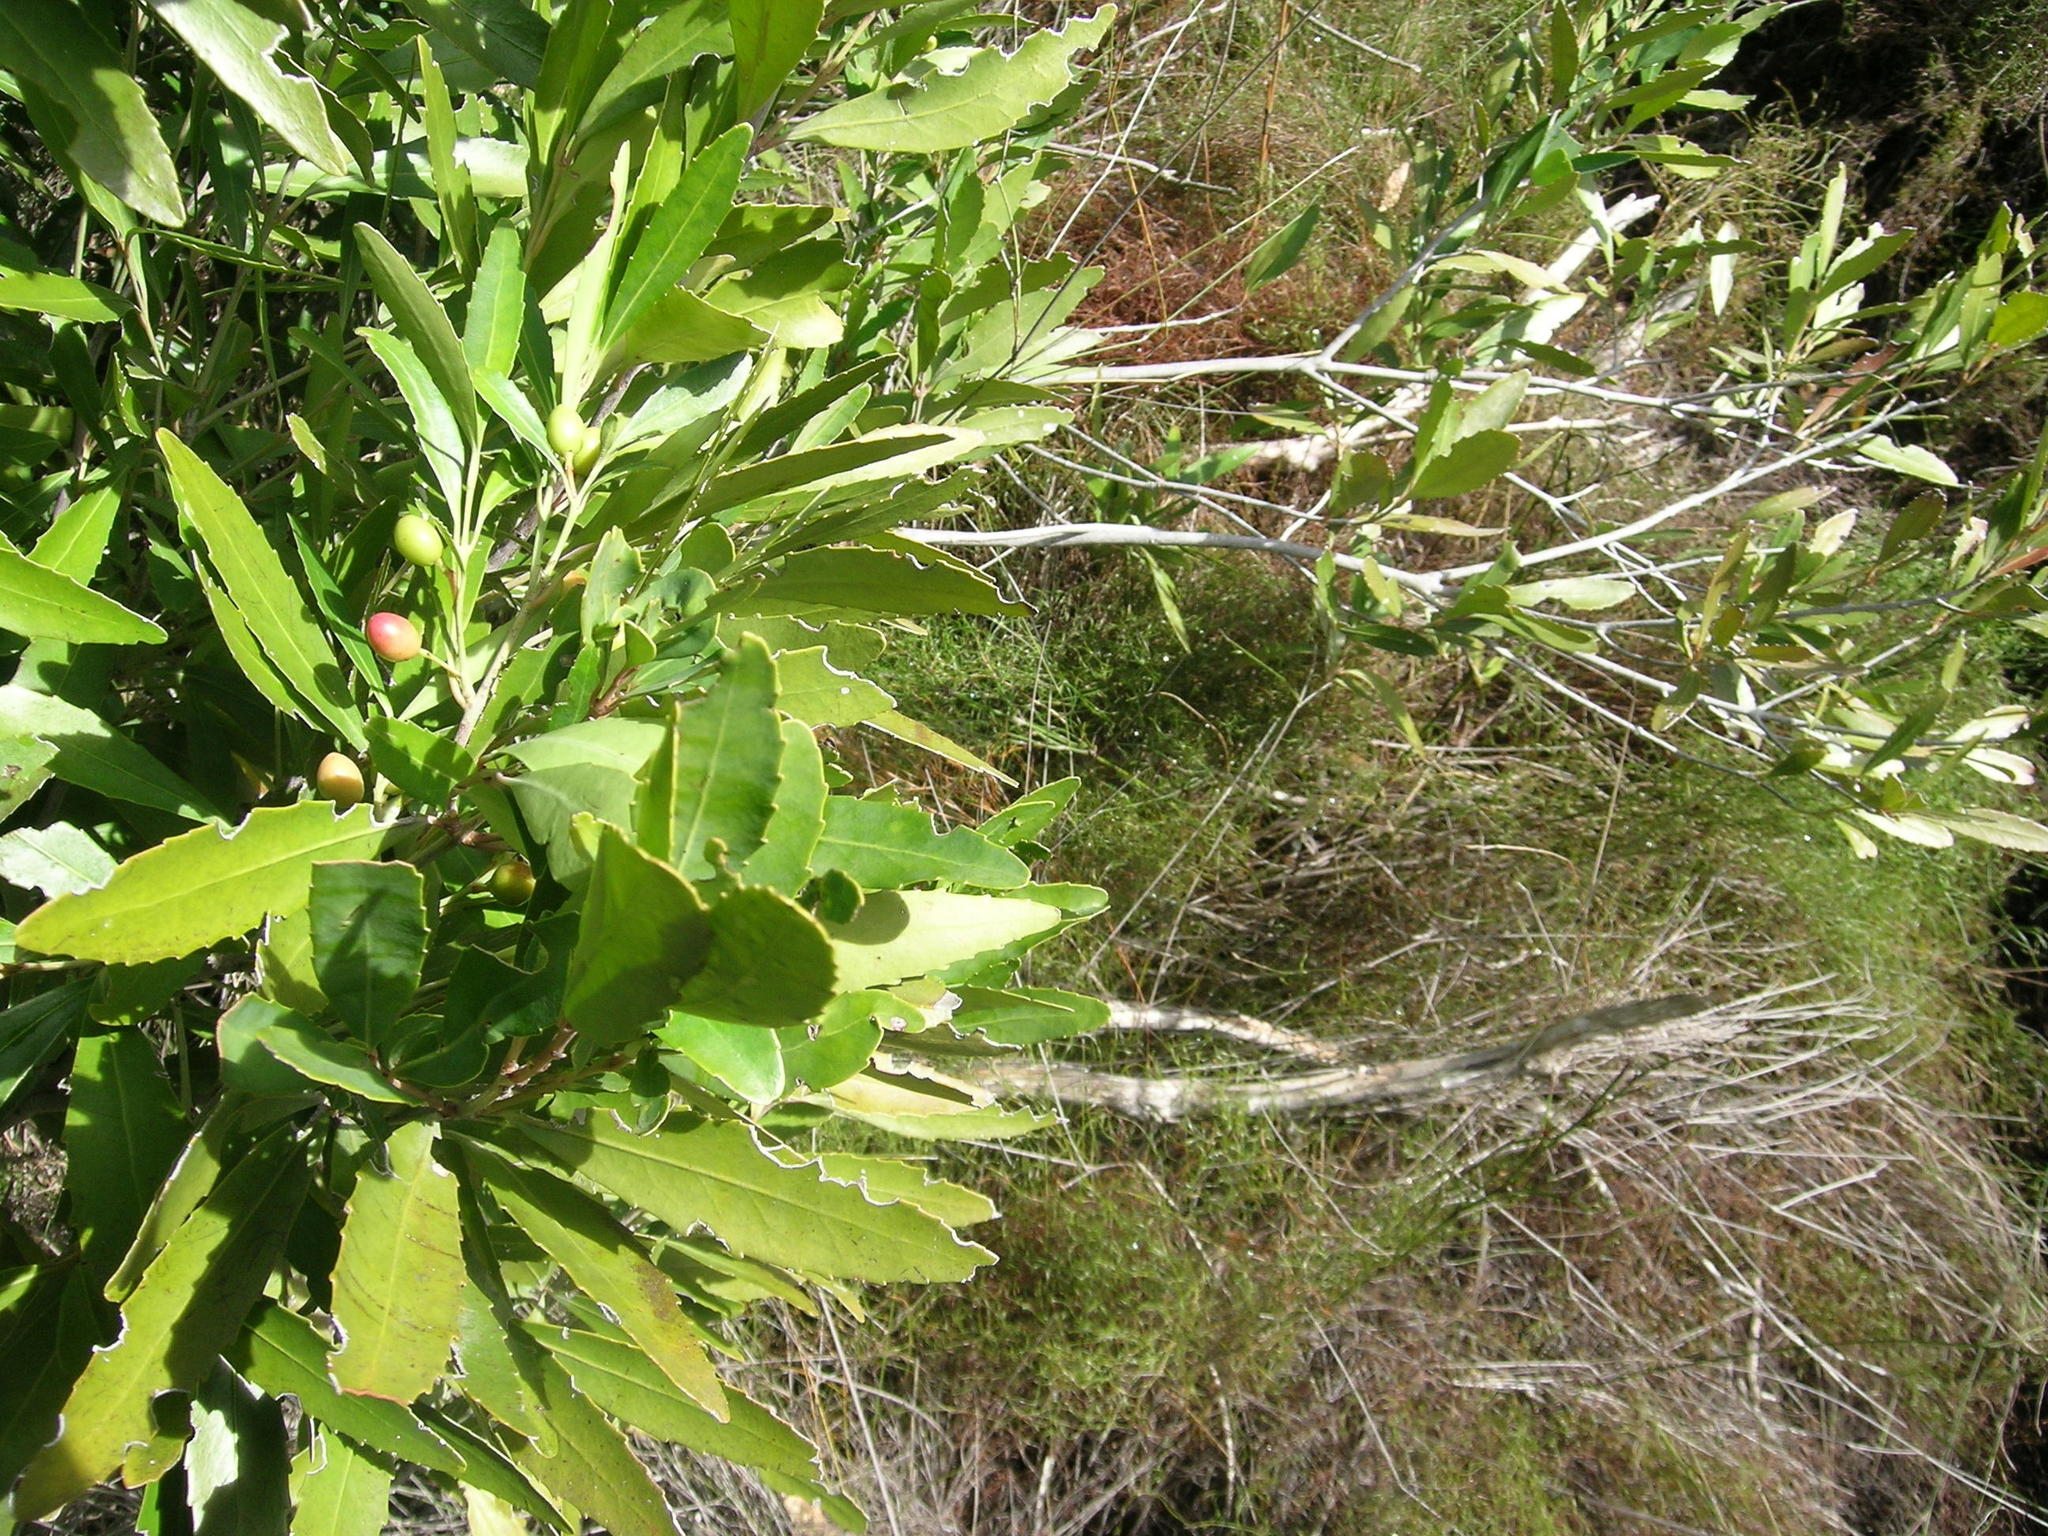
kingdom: Plantae
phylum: Tracheophyta
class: Magnoliopsida
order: Celastrales
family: Celastraceae
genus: Elaeodendron
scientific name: Elaeodendron schinoides
